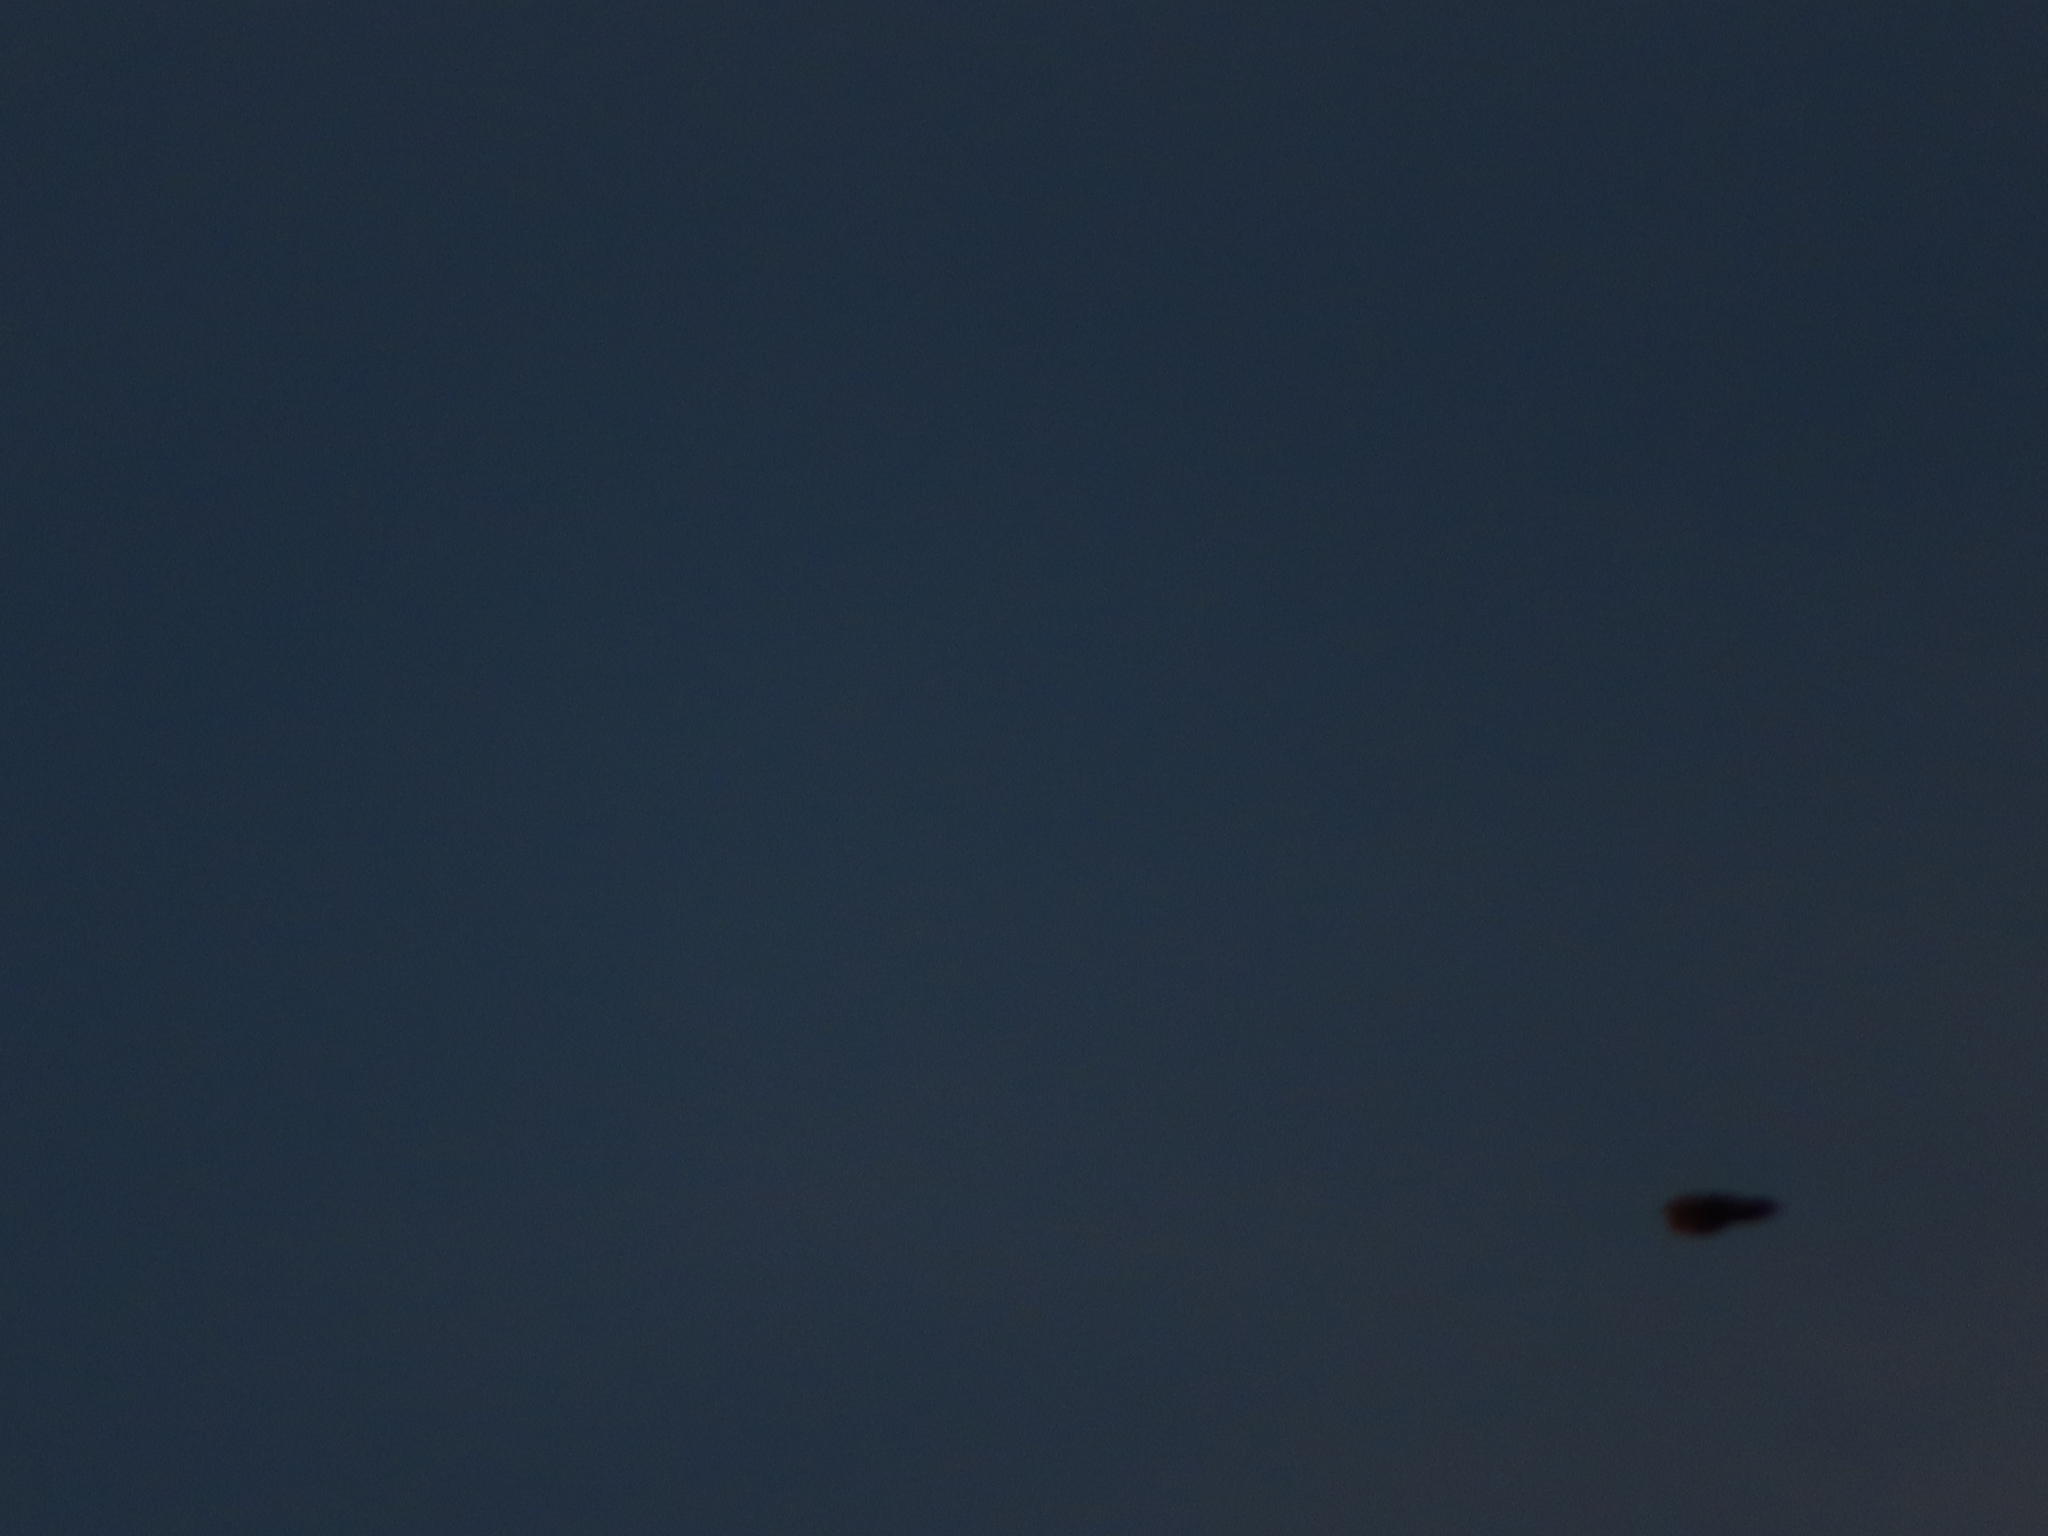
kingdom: Animalia
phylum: Chordata
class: Aves
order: Passeriformes
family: Turdidae
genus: Turdus
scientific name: Turdus migratorius
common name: American robin
